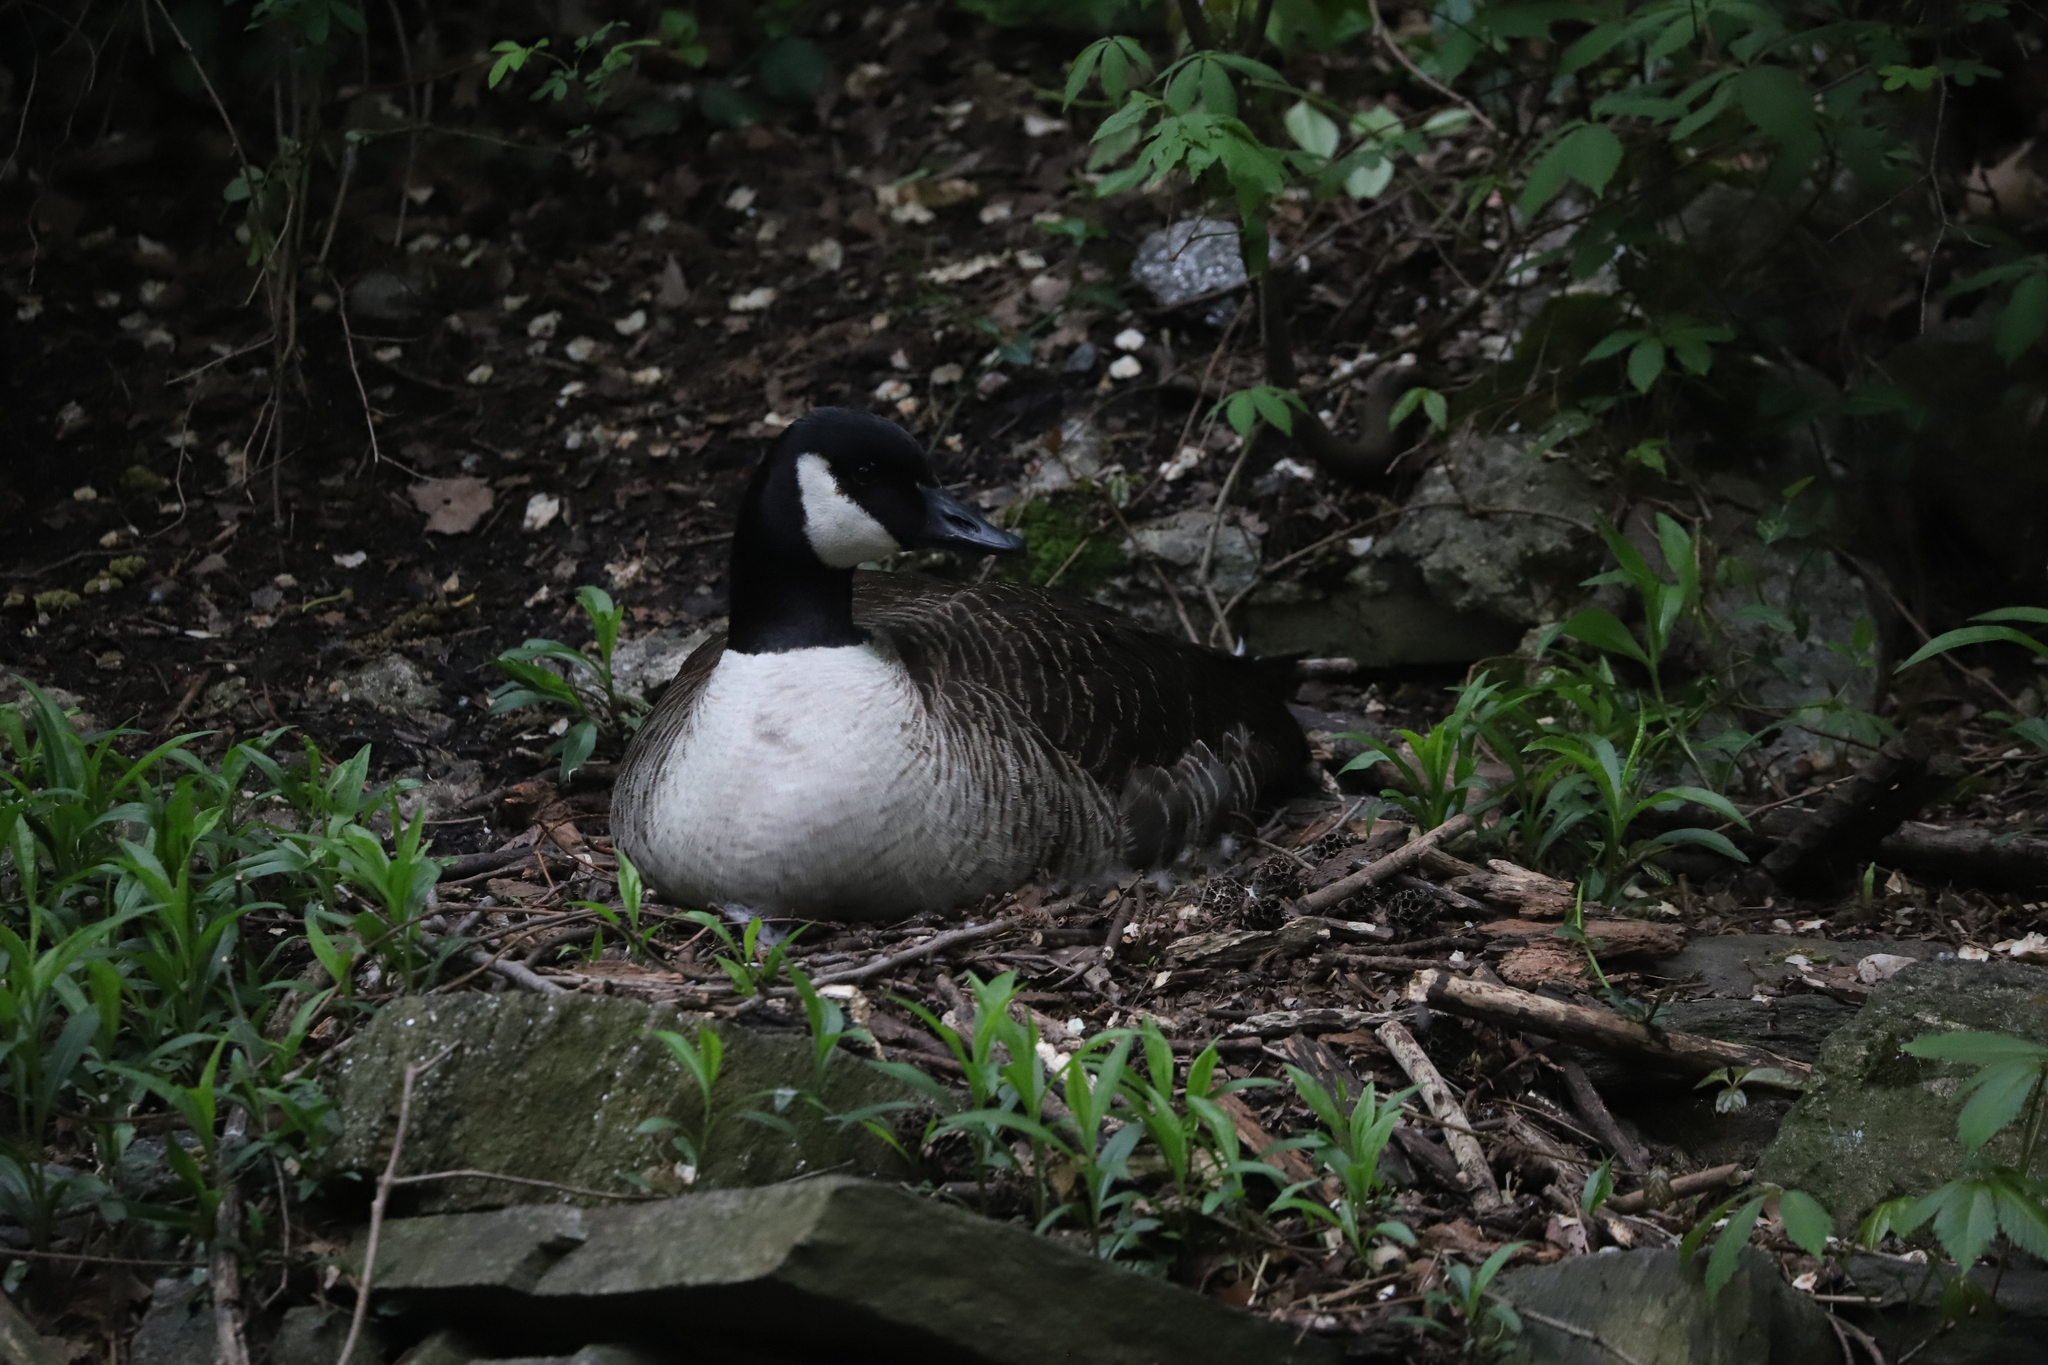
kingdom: Animalia
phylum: Chordata
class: Aves
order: Anseriformes
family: Anatidae
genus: Branta
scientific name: Branta canadensis
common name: Canada goose
